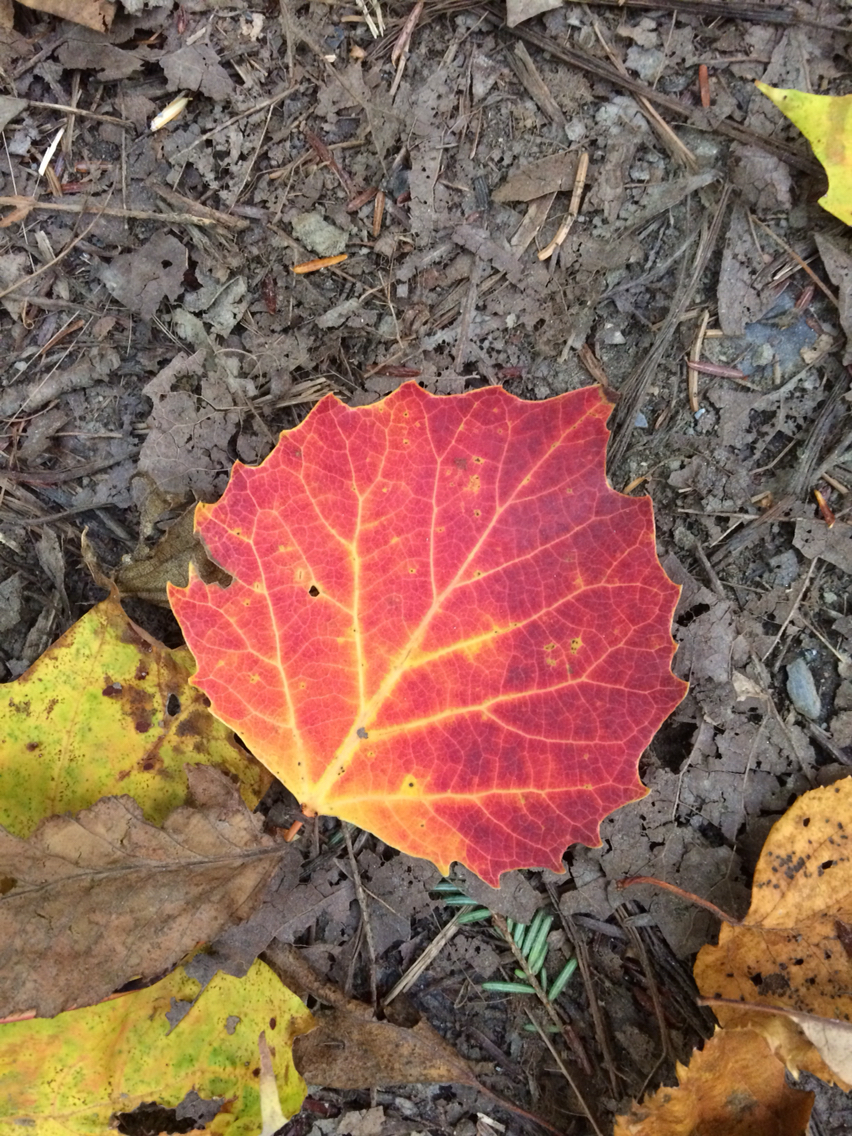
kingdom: Plantae
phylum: Tracheophyta
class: Magnoliopsida
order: Malpighiales
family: Salicaceae
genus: Populus
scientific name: Populus grandidentata
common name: Bigtooth aspen
